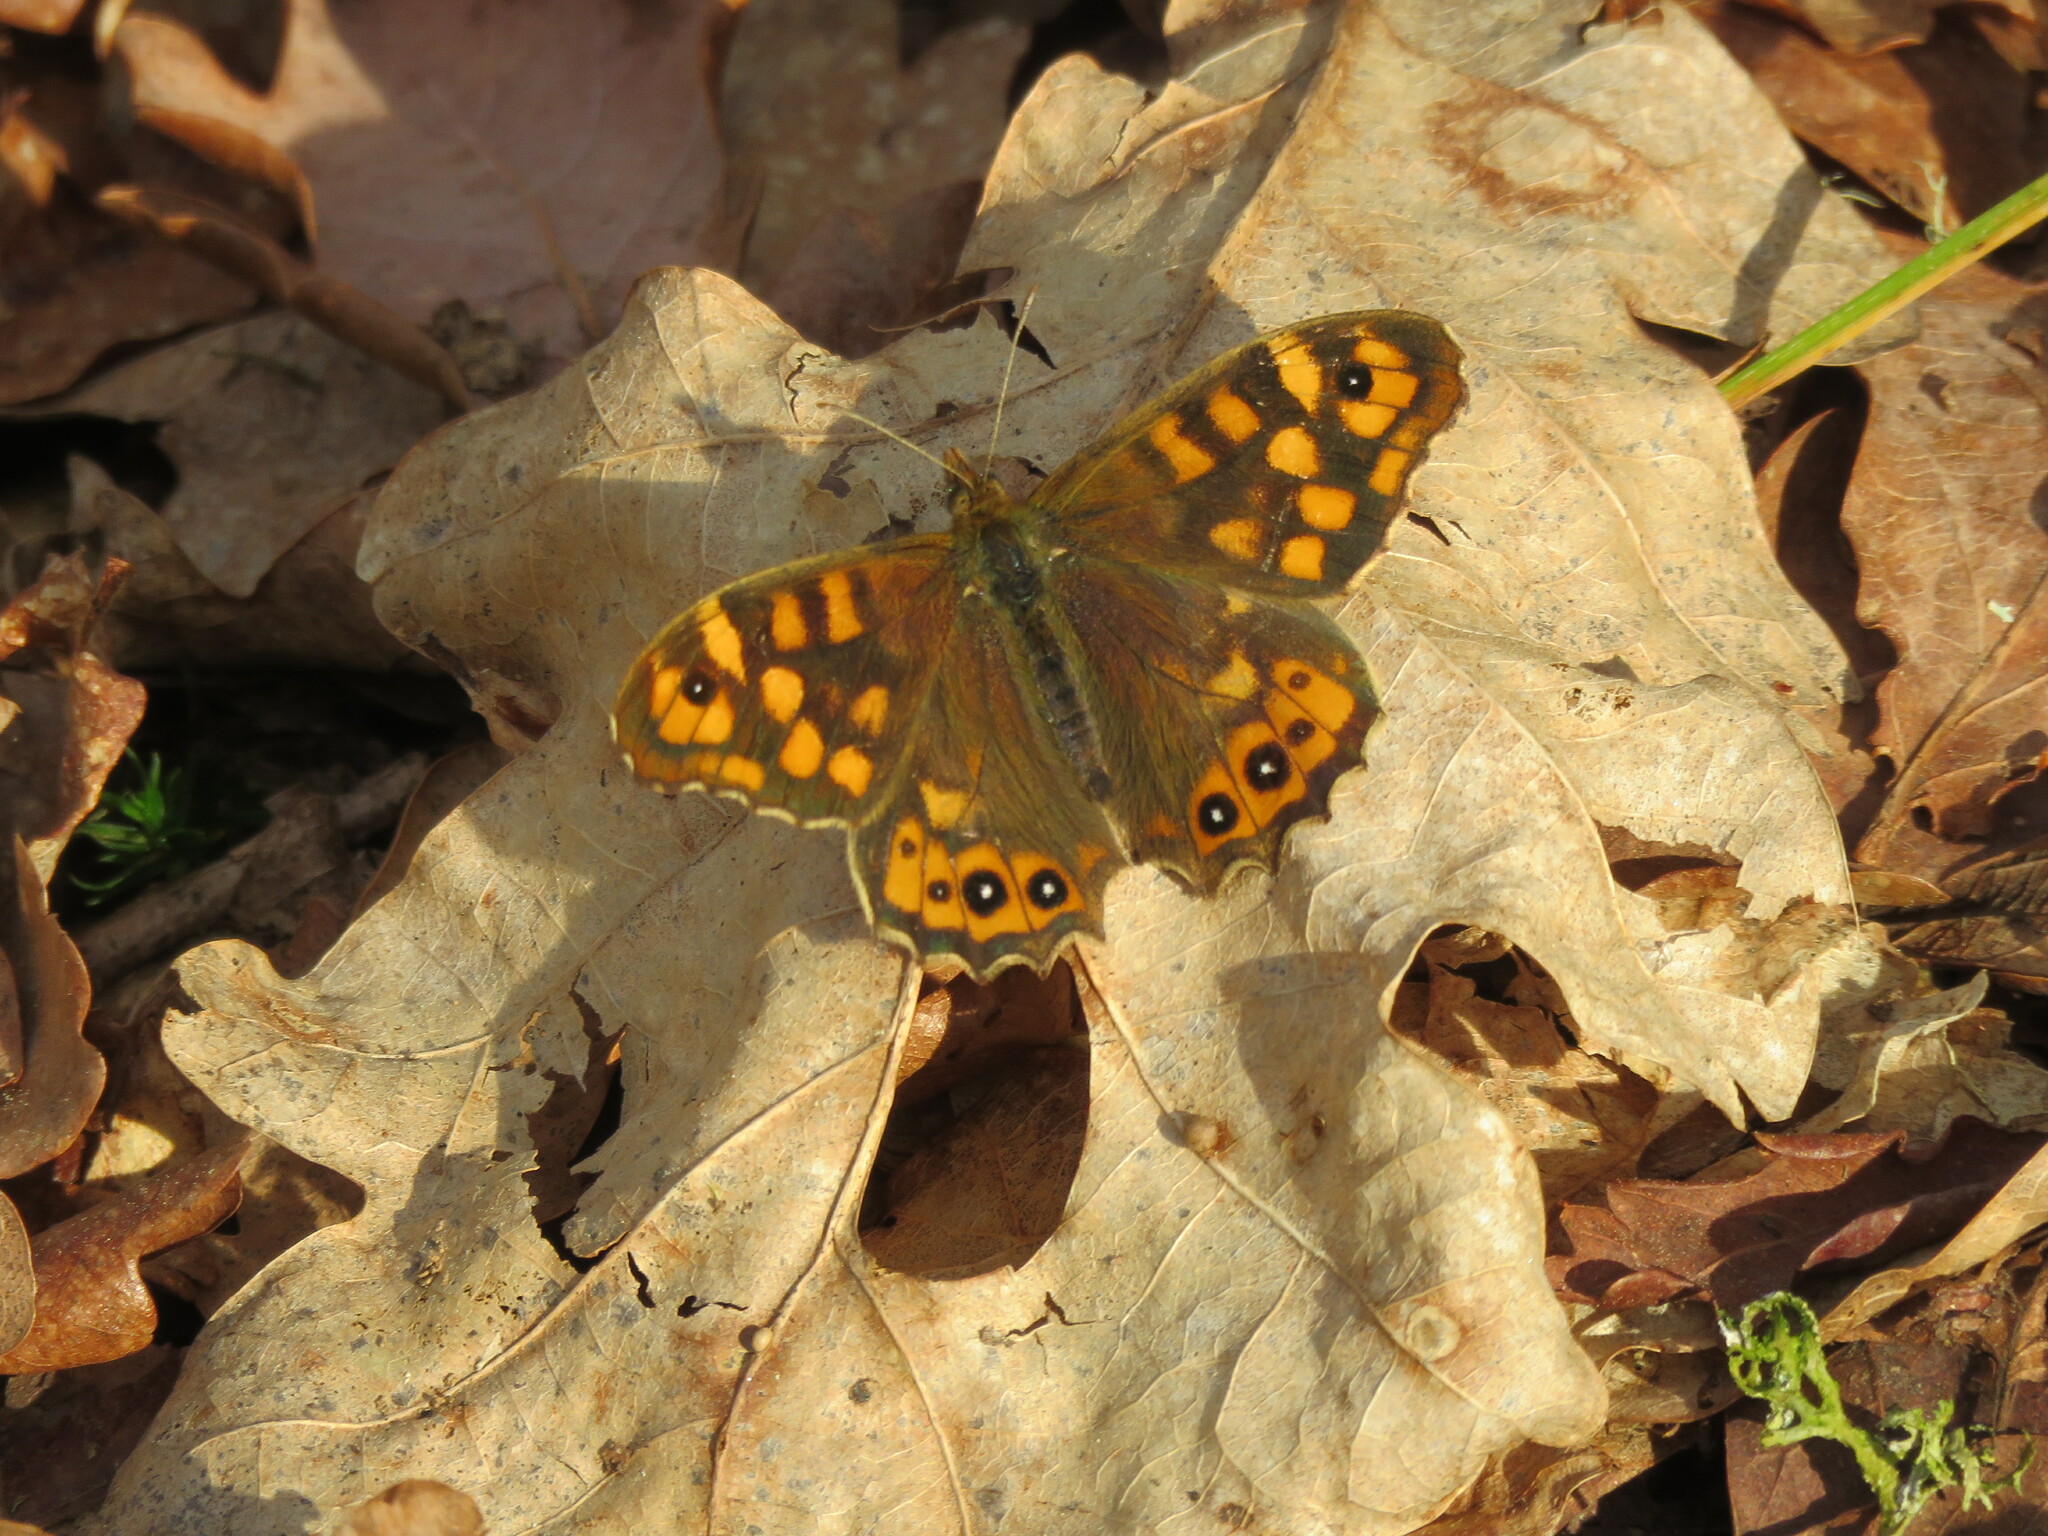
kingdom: Animalia
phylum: Arthropoda
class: Insecta
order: Lepidoptera
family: Nymphalidae
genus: Pararge
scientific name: Pararge aegeria
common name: Speckled wood
